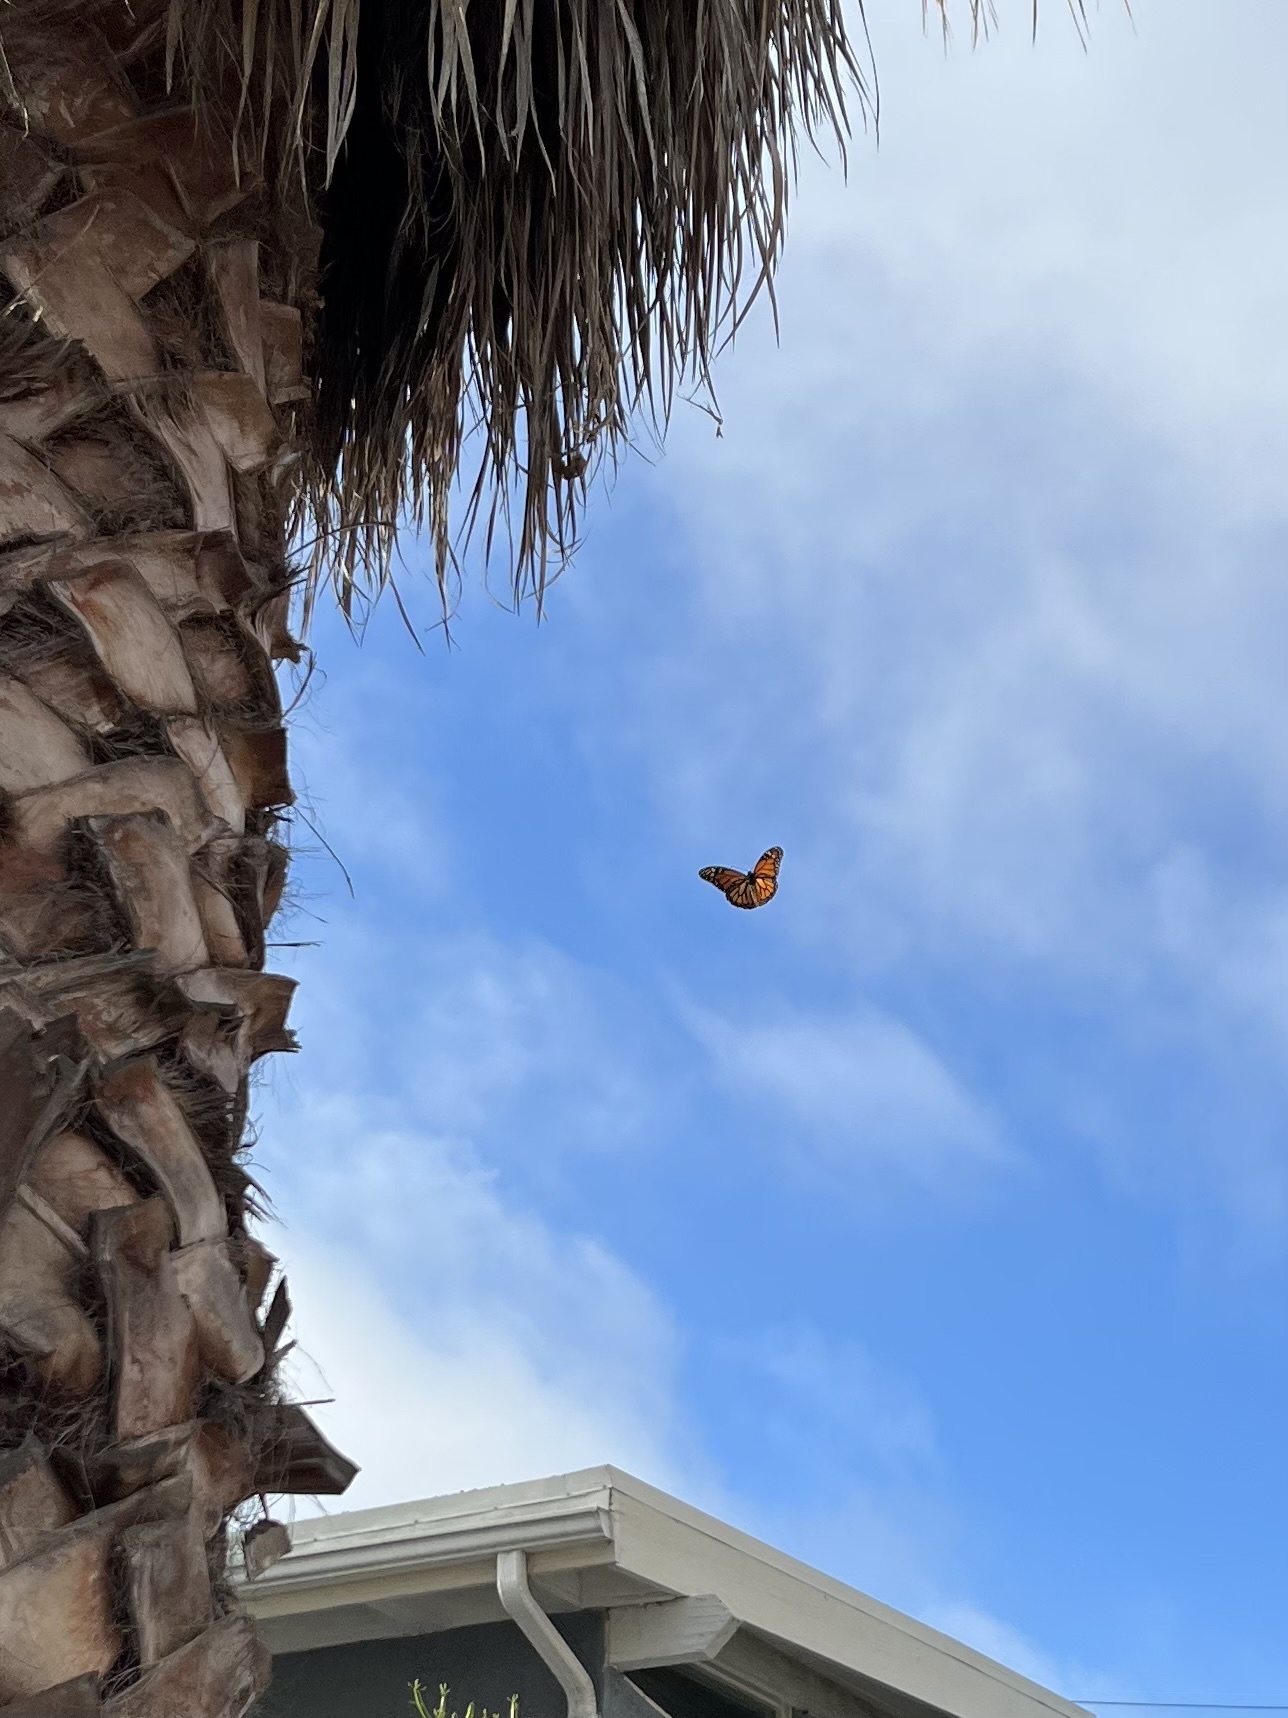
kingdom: Animalia
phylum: Arthropoda
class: Insecta
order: Lepidoptera
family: Nymphalidae
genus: Danaus
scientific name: Danaus plexippus
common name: Monarch
